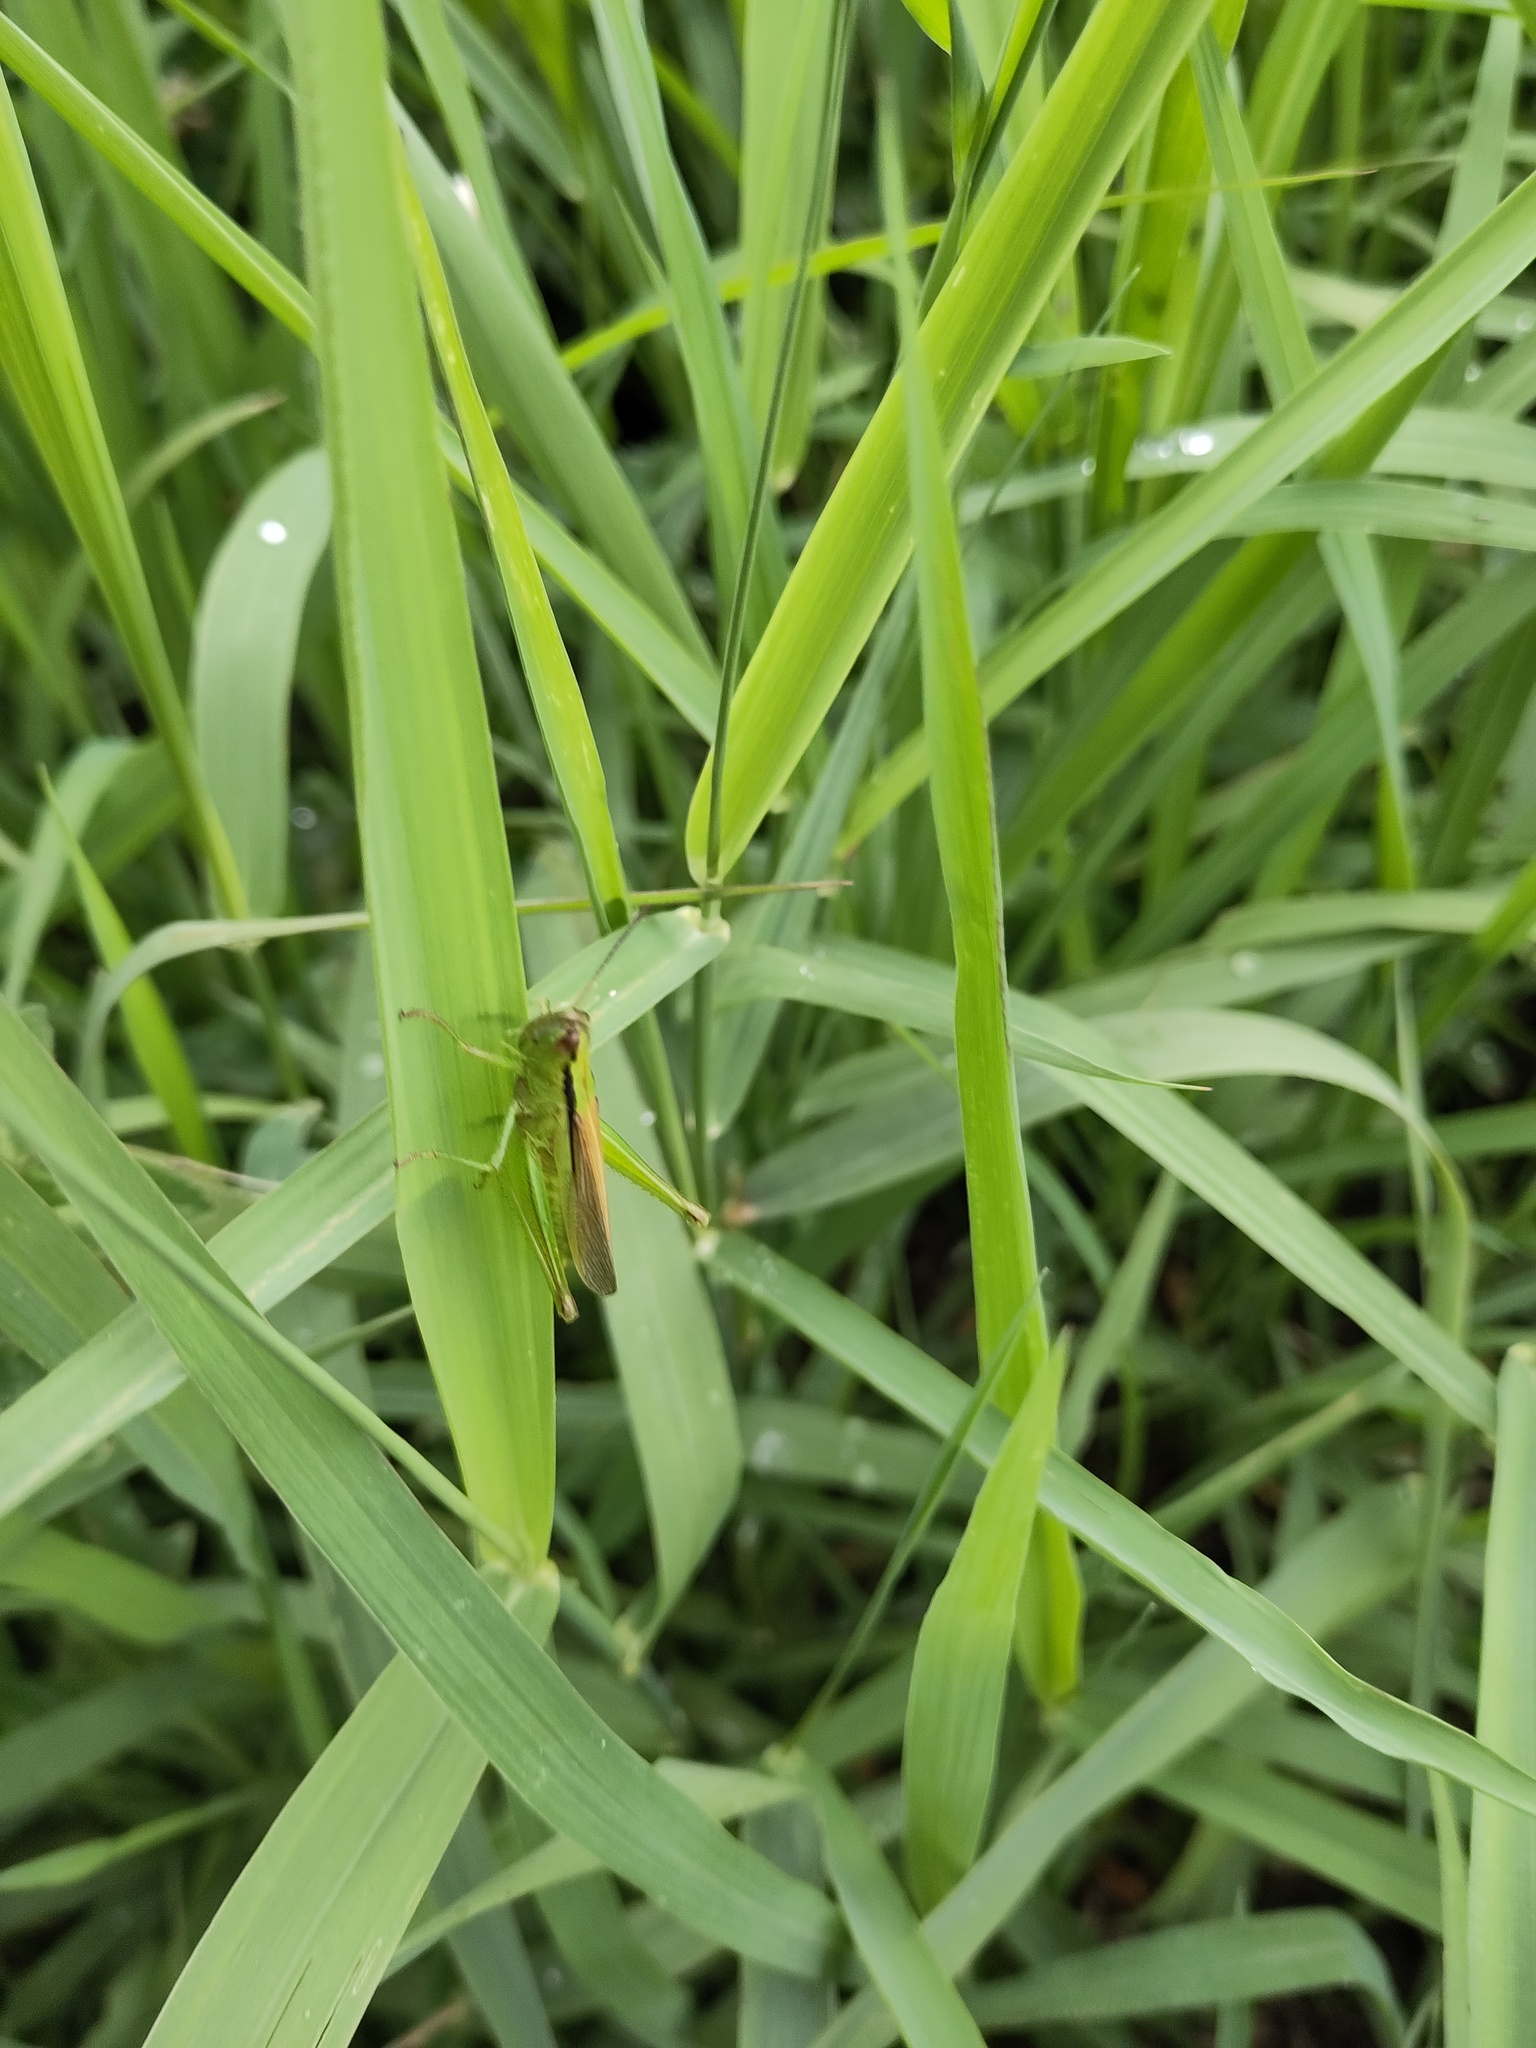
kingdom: Animalia
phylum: Arthropoda
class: Insecta
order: Orthoptera
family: Acrididae
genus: Mecostethus
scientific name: Mecostethus parapleurus
